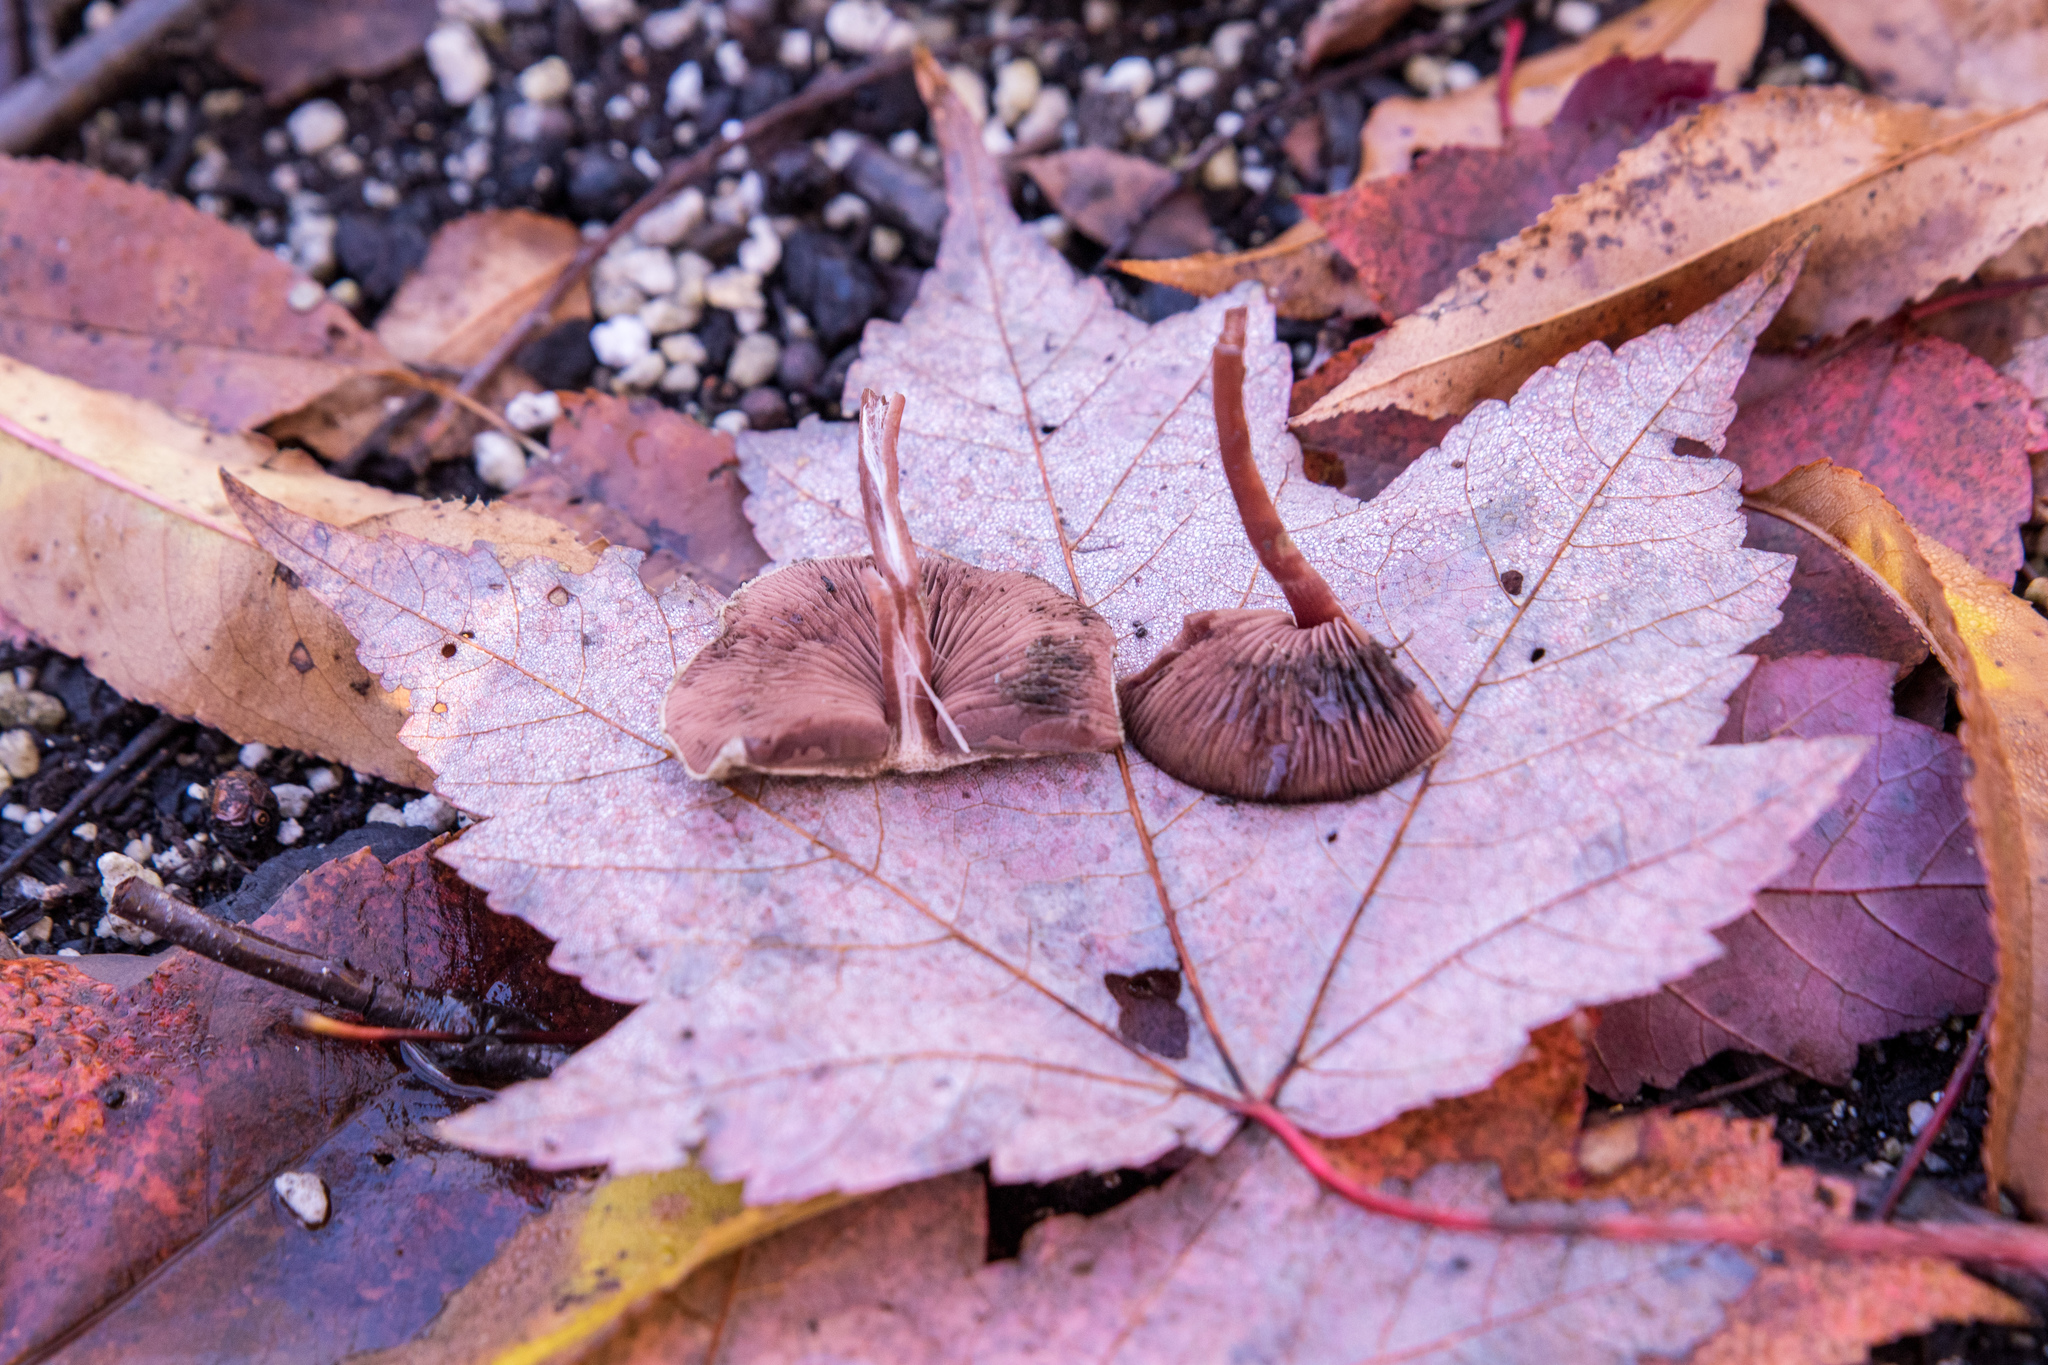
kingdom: Fungi
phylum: Basidiomycota
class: Agaricomycetes
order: Agaricales
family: Agaricaceae
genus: Melanophyllum
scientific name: Melanophyllum haematospermum
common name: Redspored dapperling
